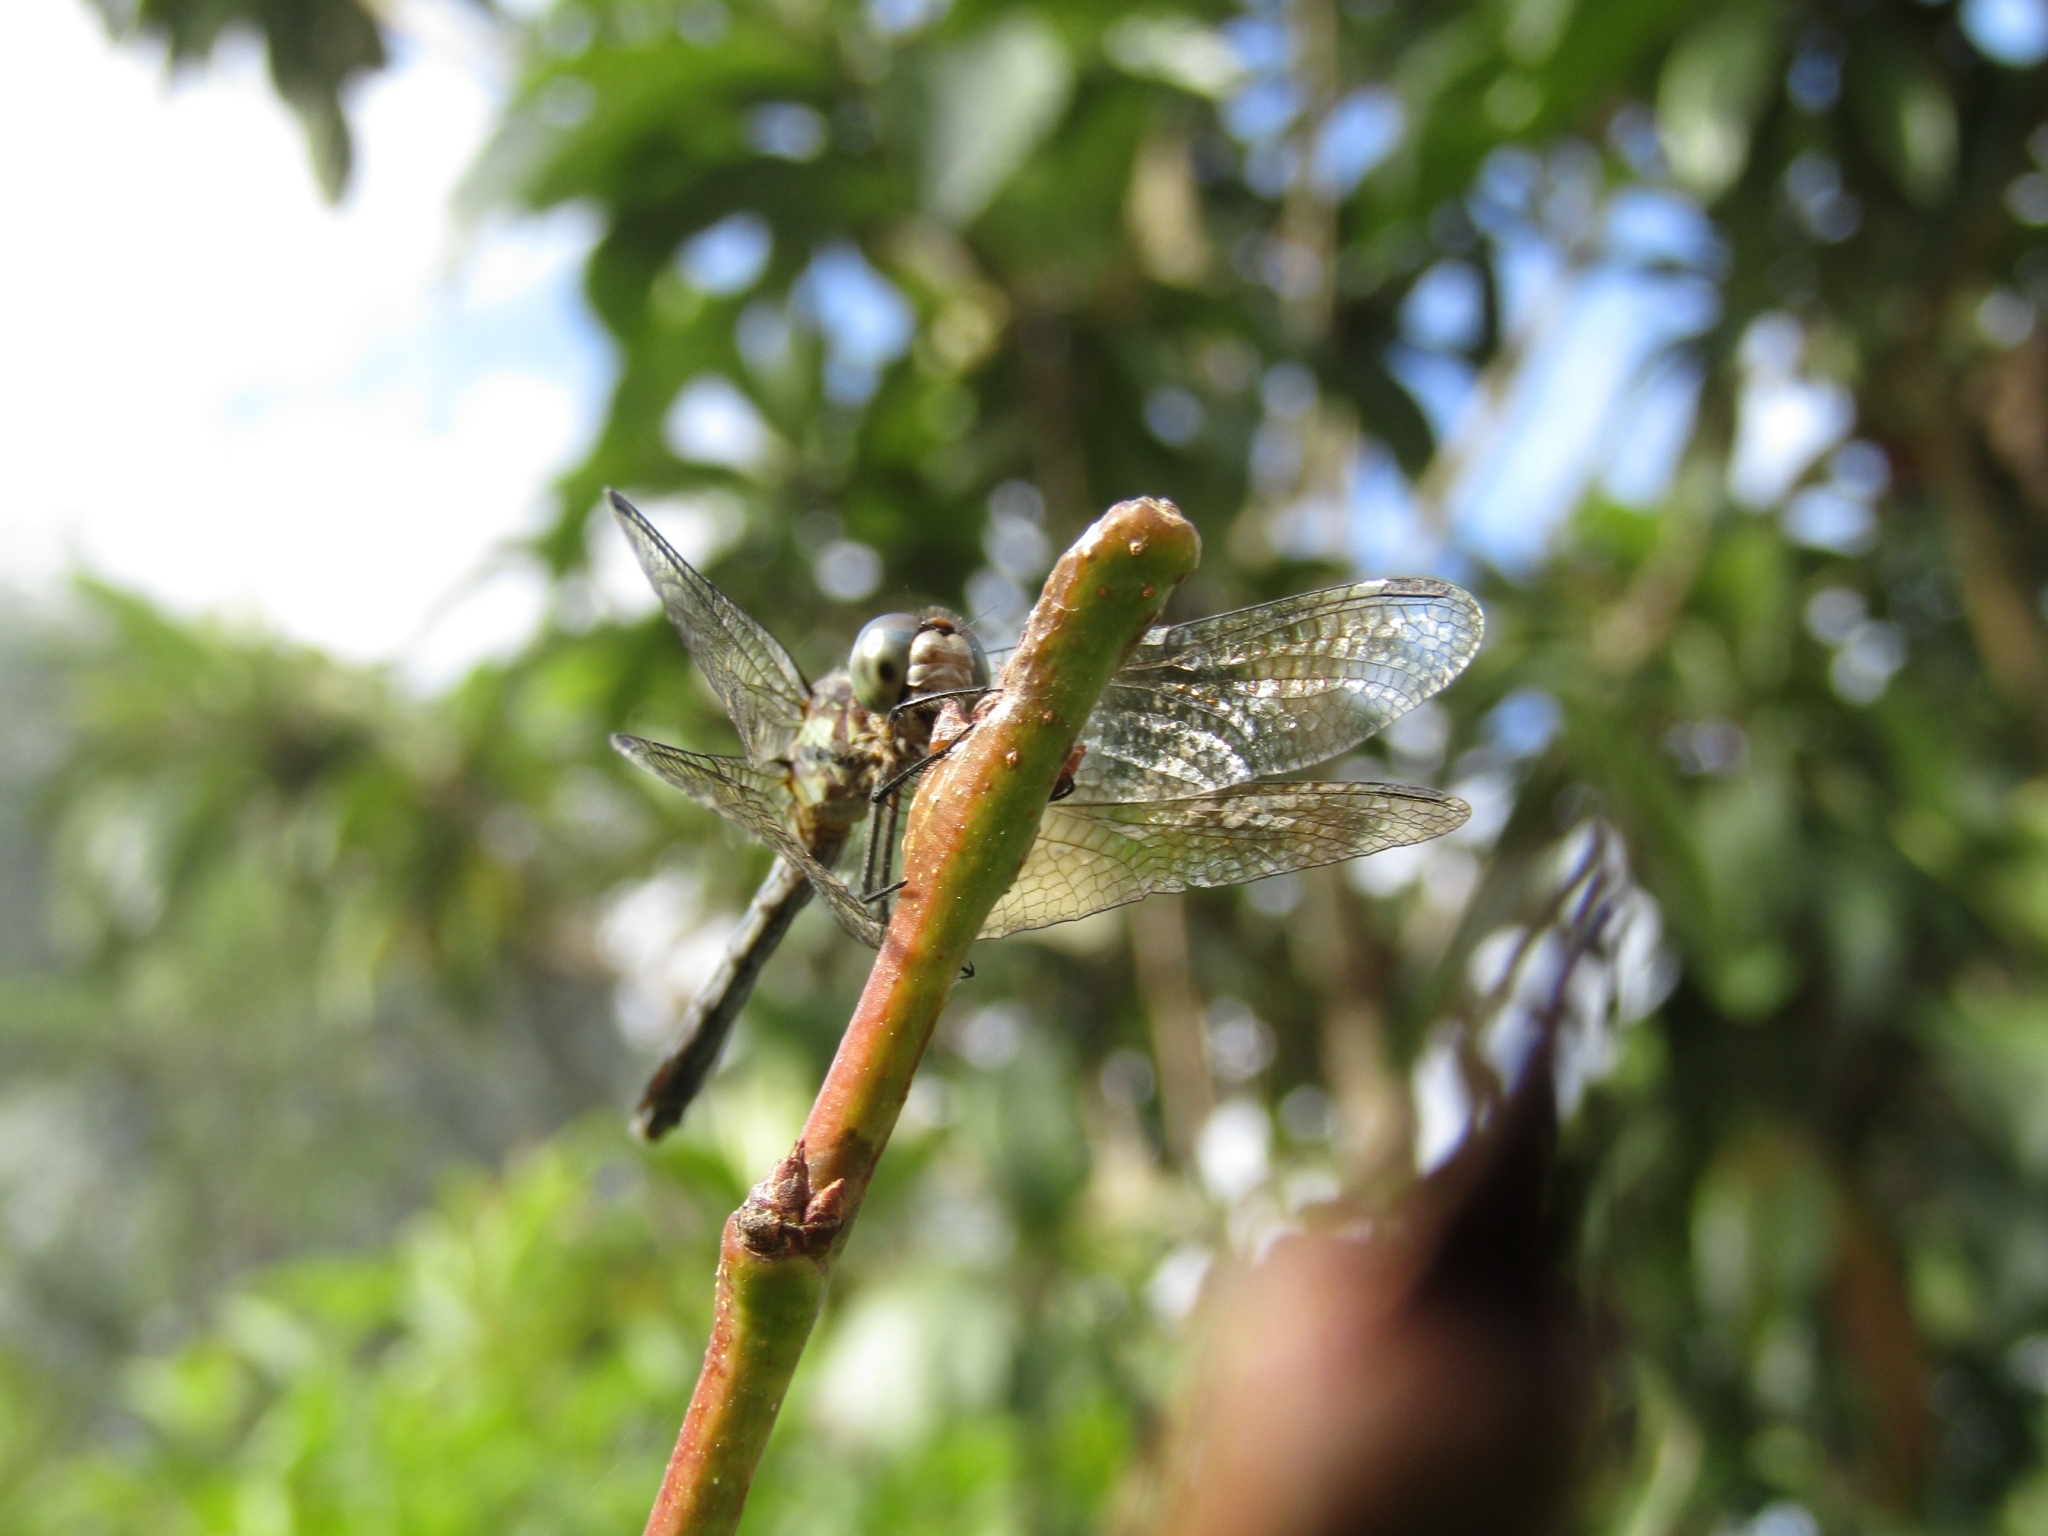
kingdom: Animalia
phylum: Arthropoda
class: Insecta
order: Odonata
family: Libellulidae
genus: Micrathyria
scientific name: Micrathyria hypodidyma
